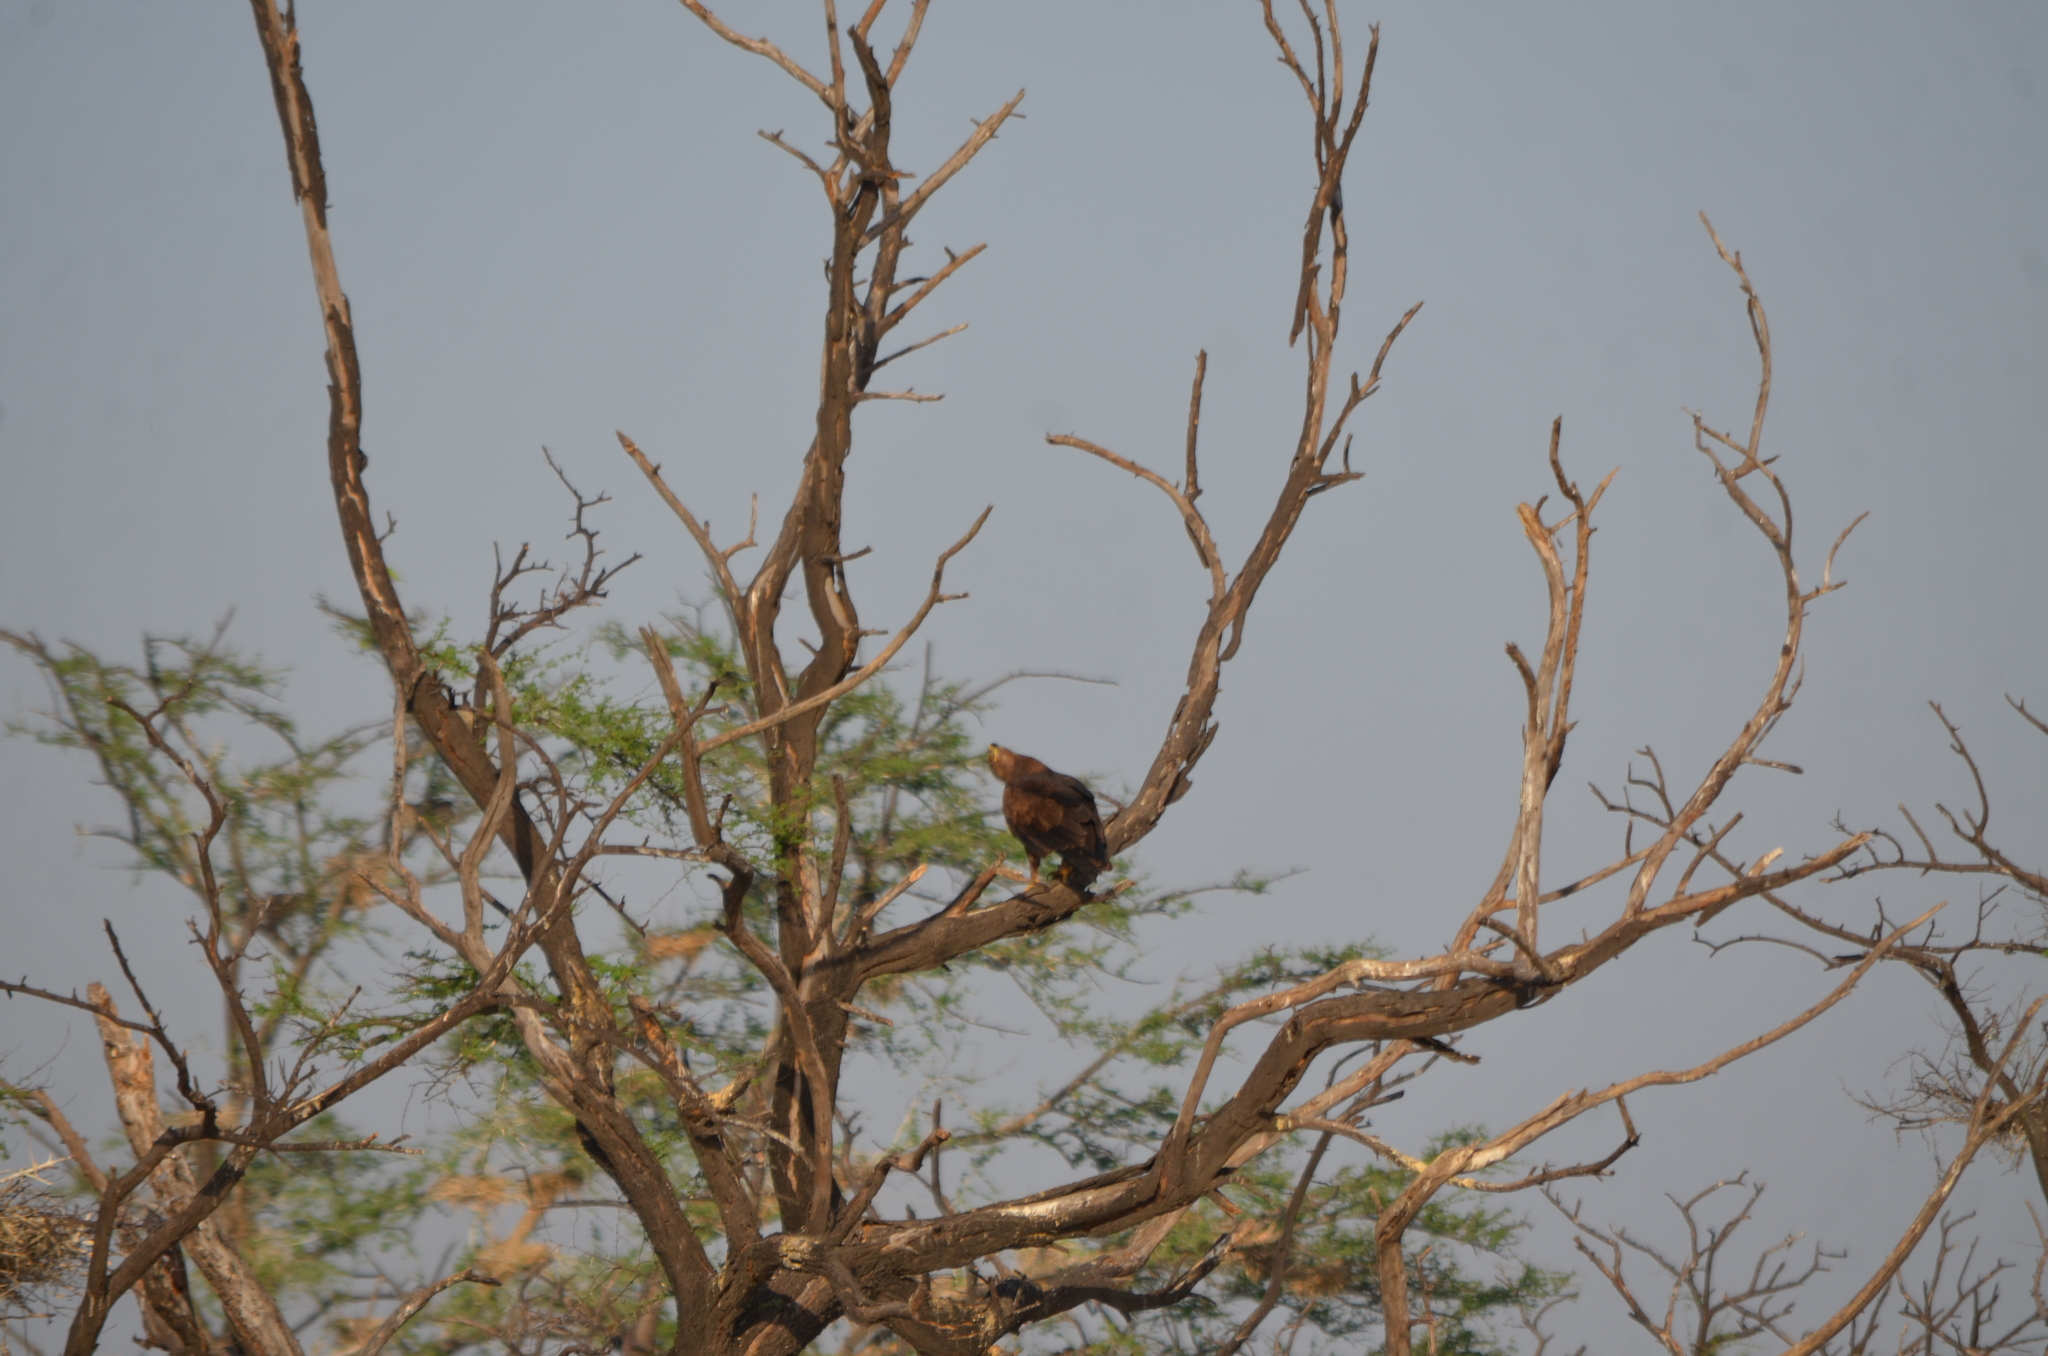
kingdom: Animalia
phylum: Chordata
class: Aves
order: Accipitriformes
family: Accipitridae
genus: Aquila
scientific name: Aquila clanga
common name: Greater spotted eagle
